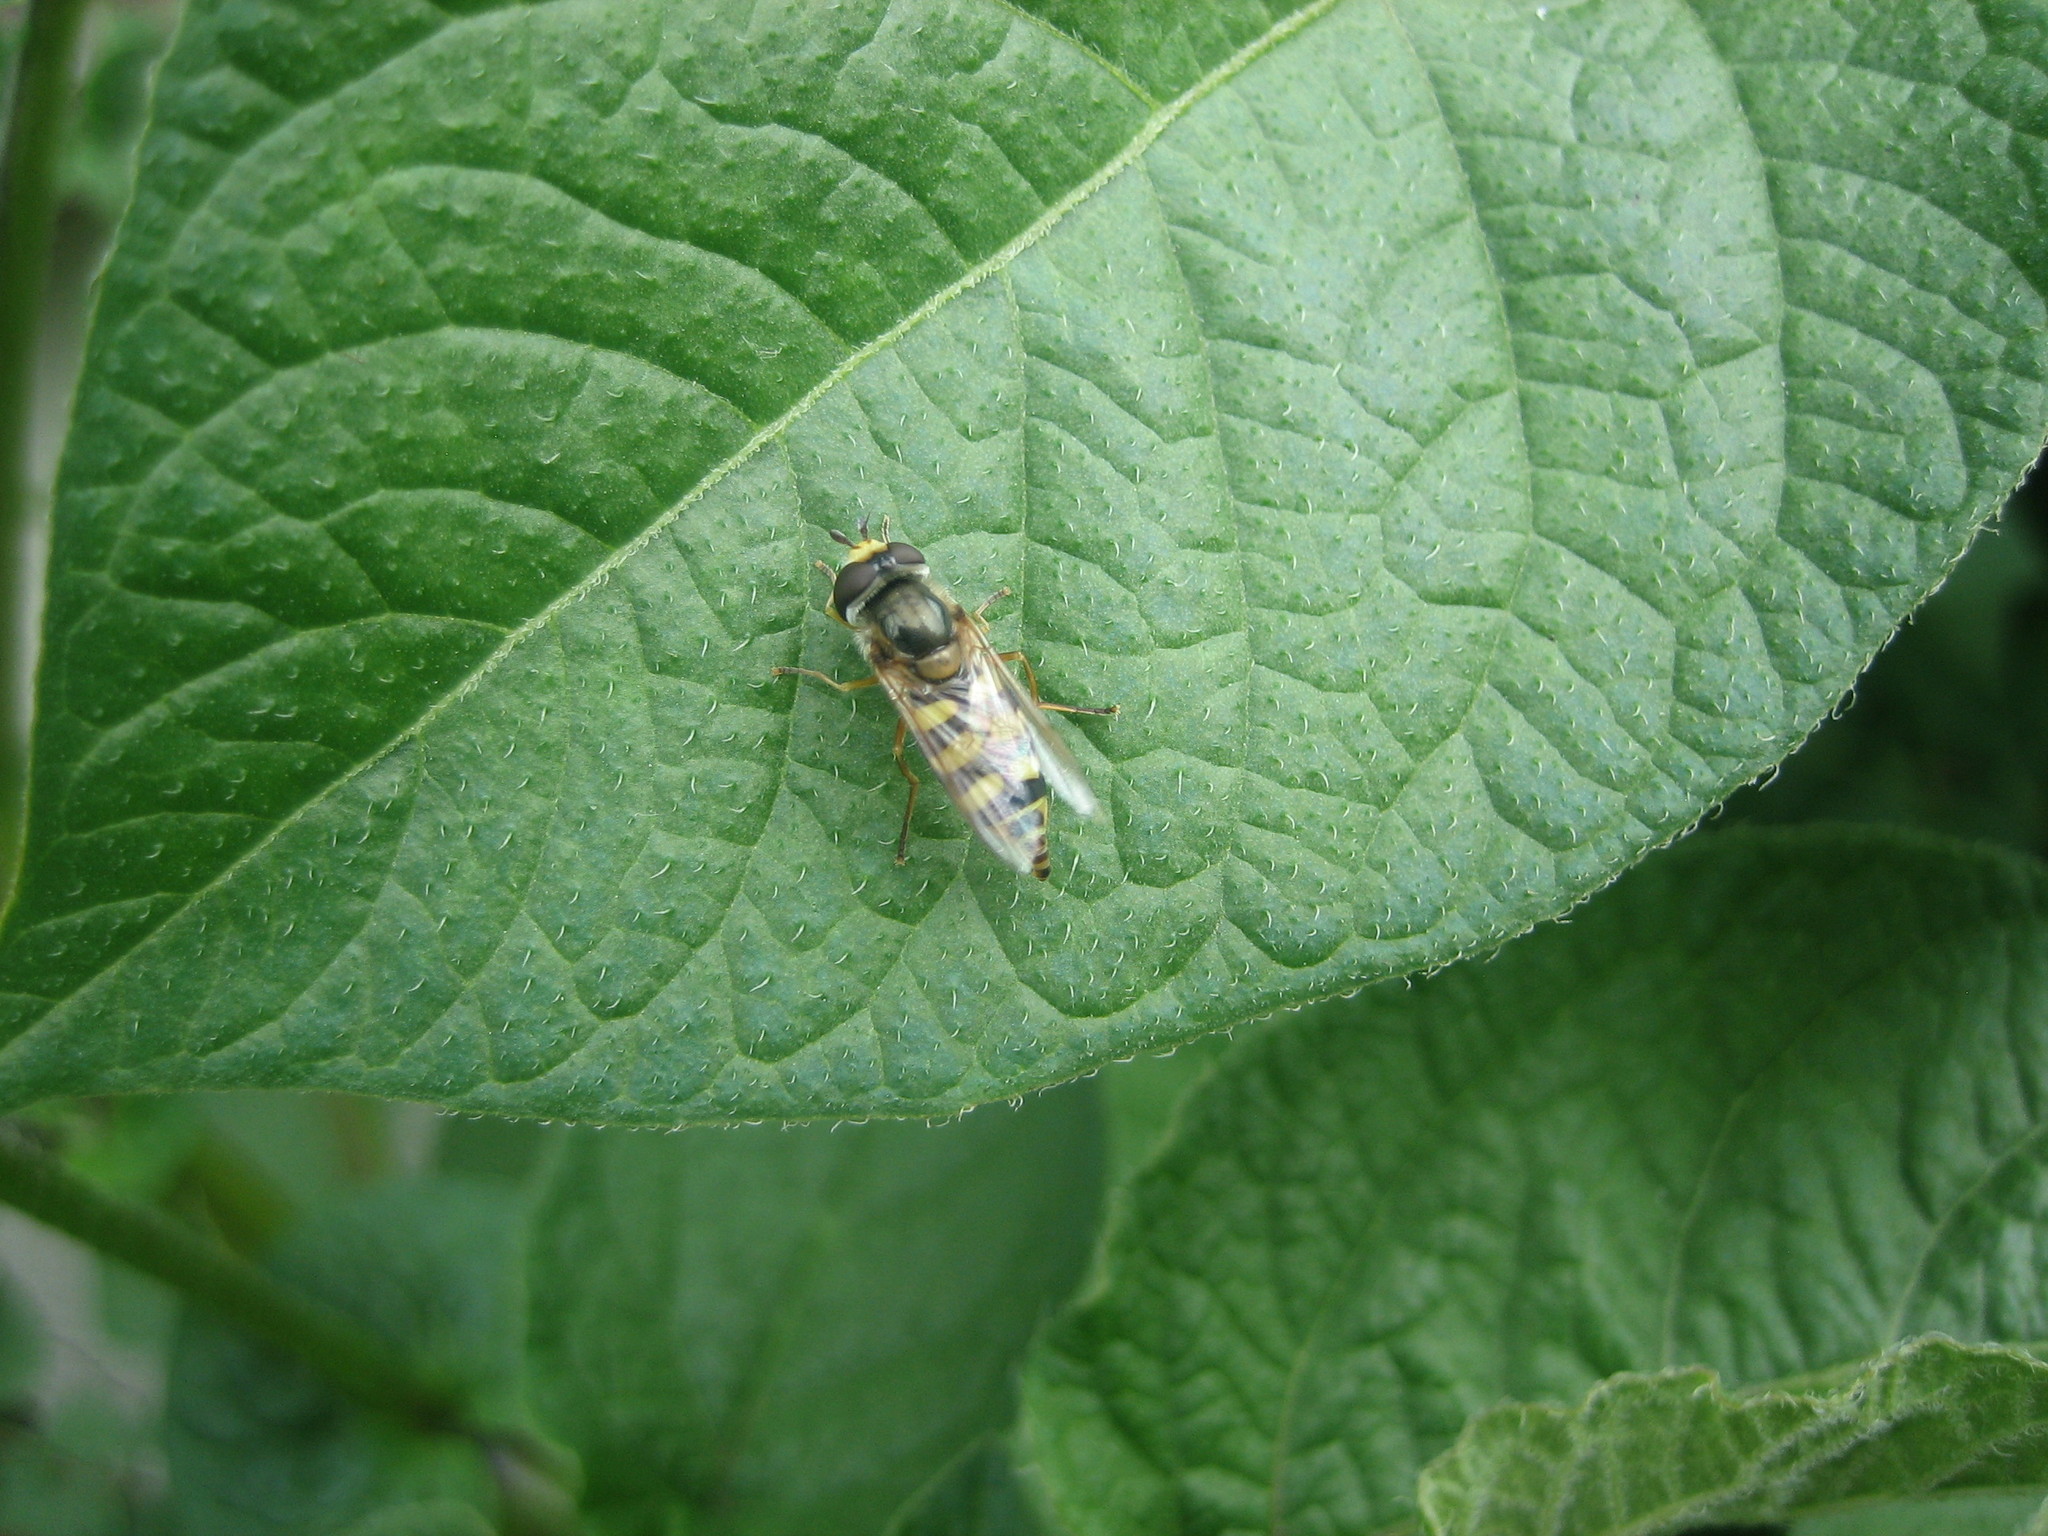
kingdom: Animalia
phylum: Arthropoda
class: Insecta
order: Diptera
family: Syrphidae
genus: Eupeodes
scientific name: Eupeodes corollae
